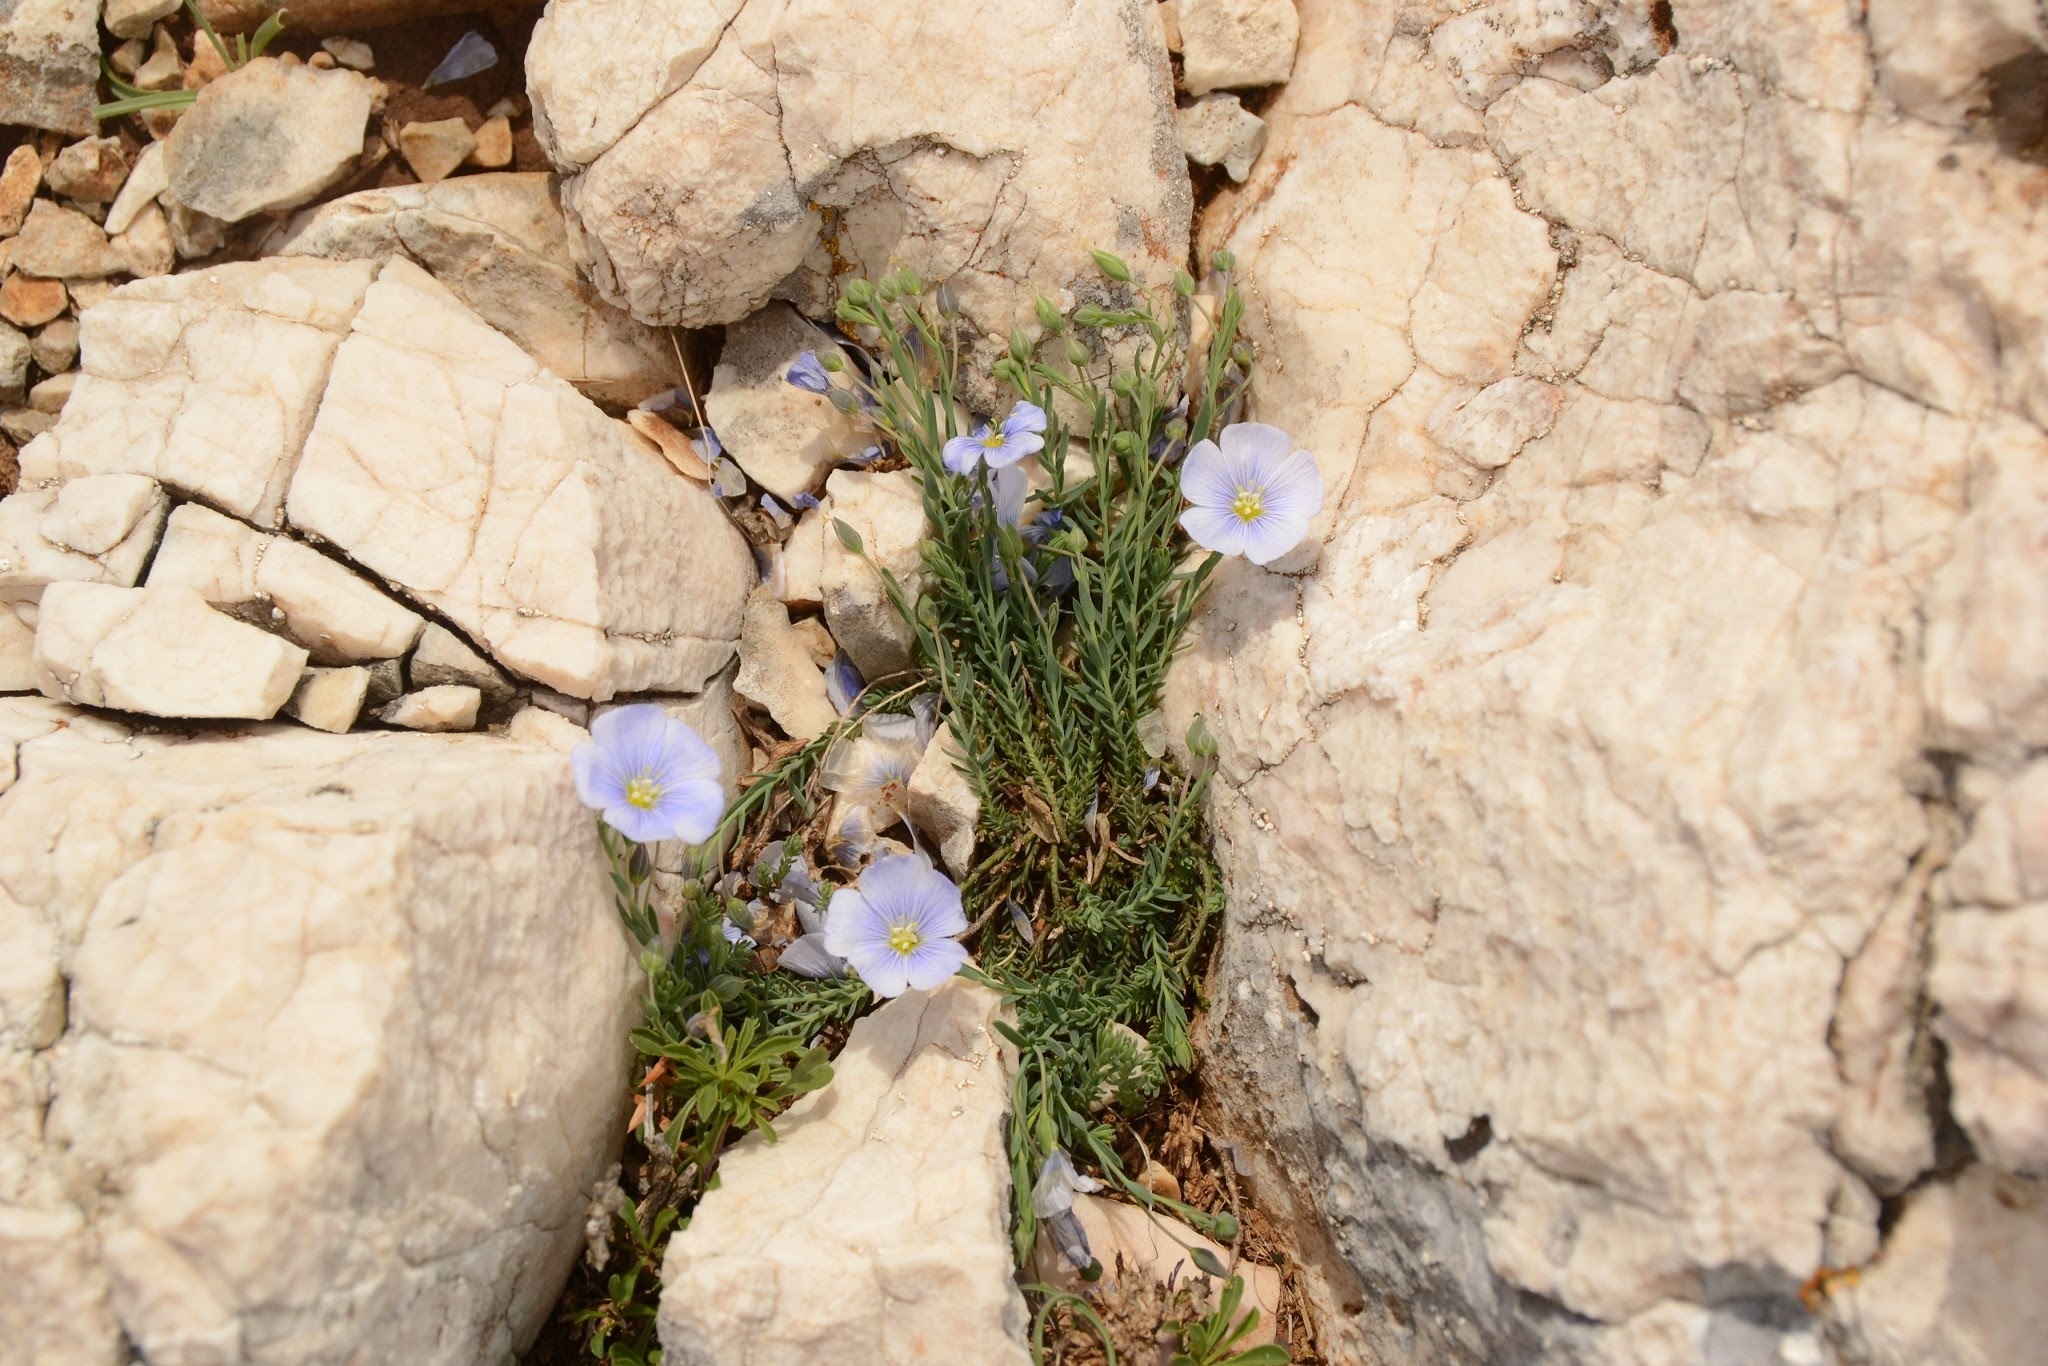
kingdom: Plantae
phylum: Tracheophyta
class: Magnoliopsida
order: Malpighiales
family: Linaceae
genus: Linum
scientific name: Linum austriacum
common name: Austrian flax
